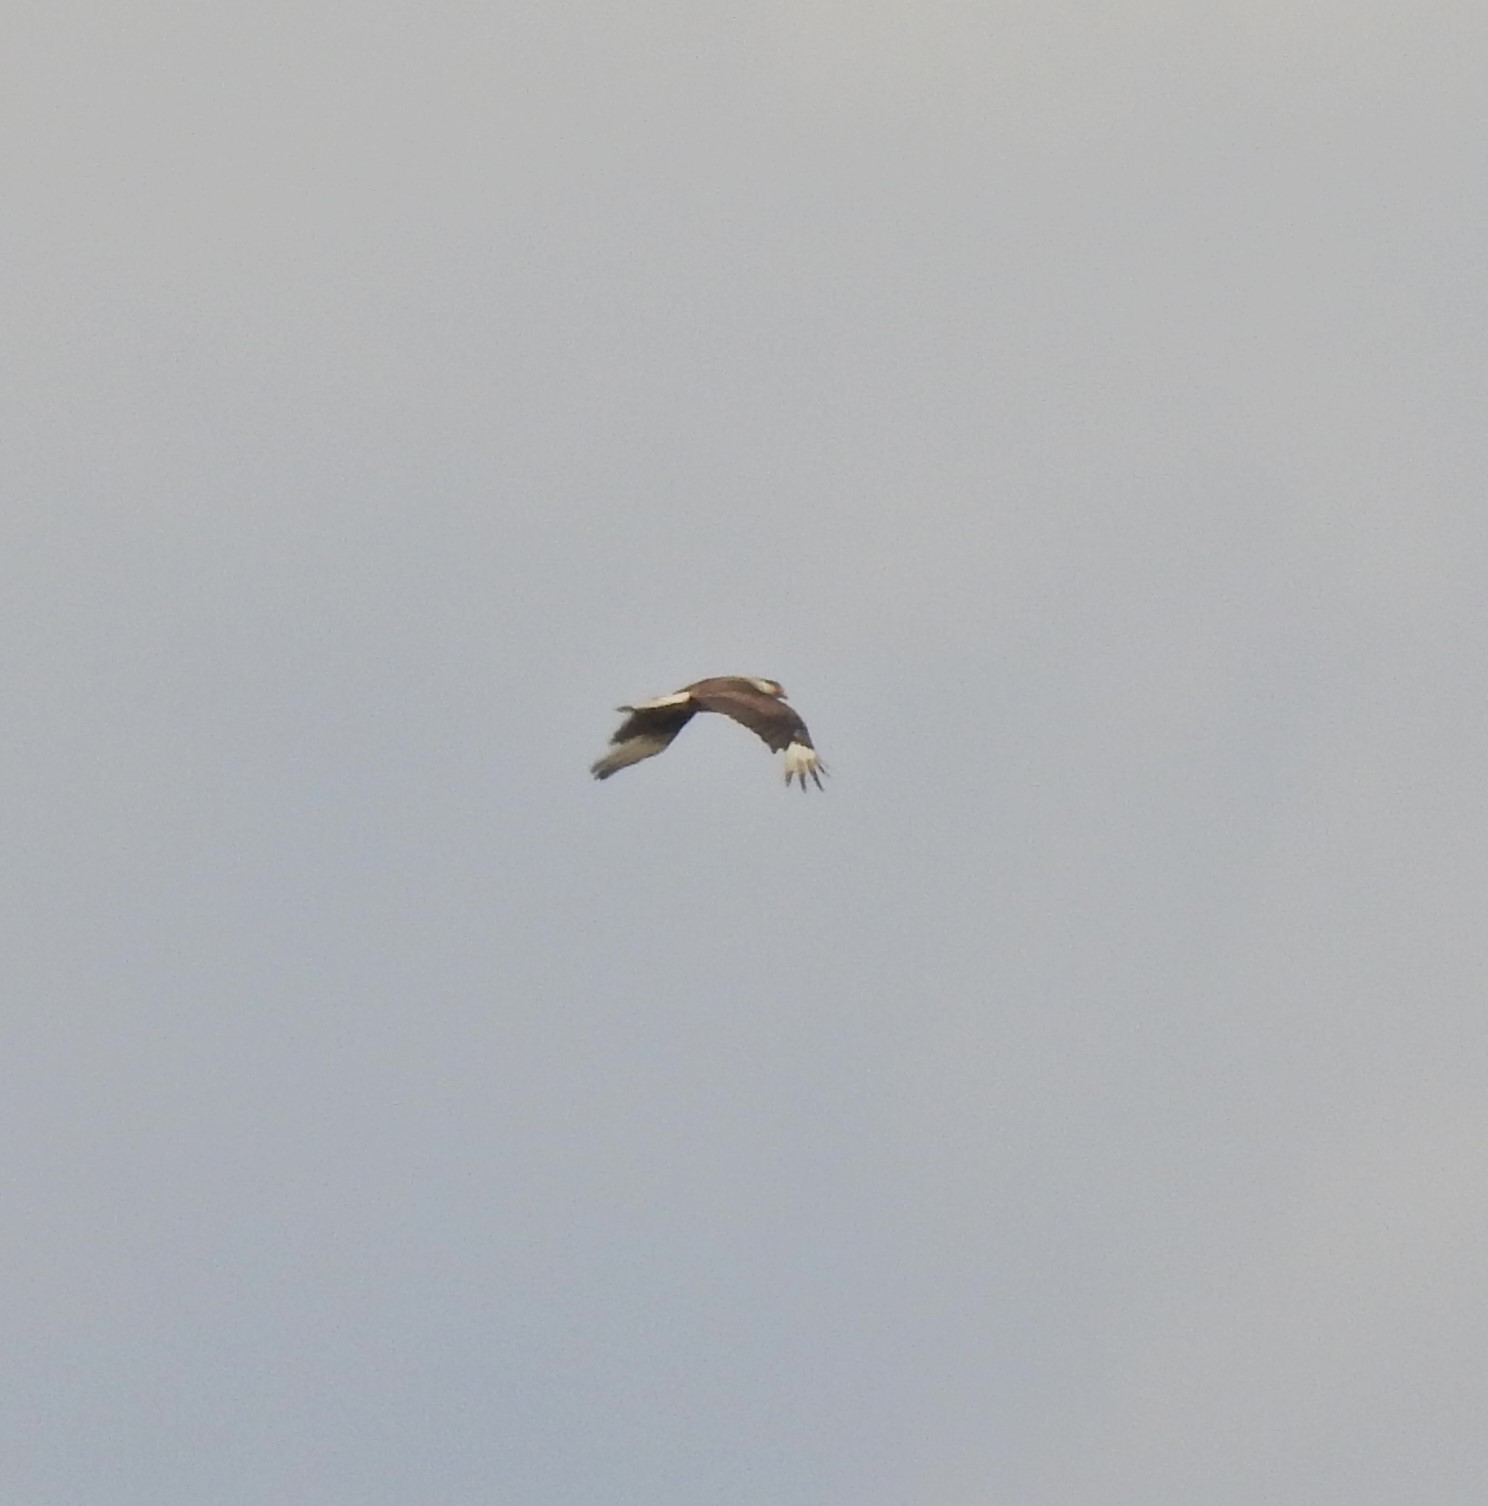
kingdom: Animalia
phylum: Chordata
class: Aves
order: Falconiformes
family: Falconidae
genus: Caracara
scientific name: Caracara plancus
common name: Southern caracara
